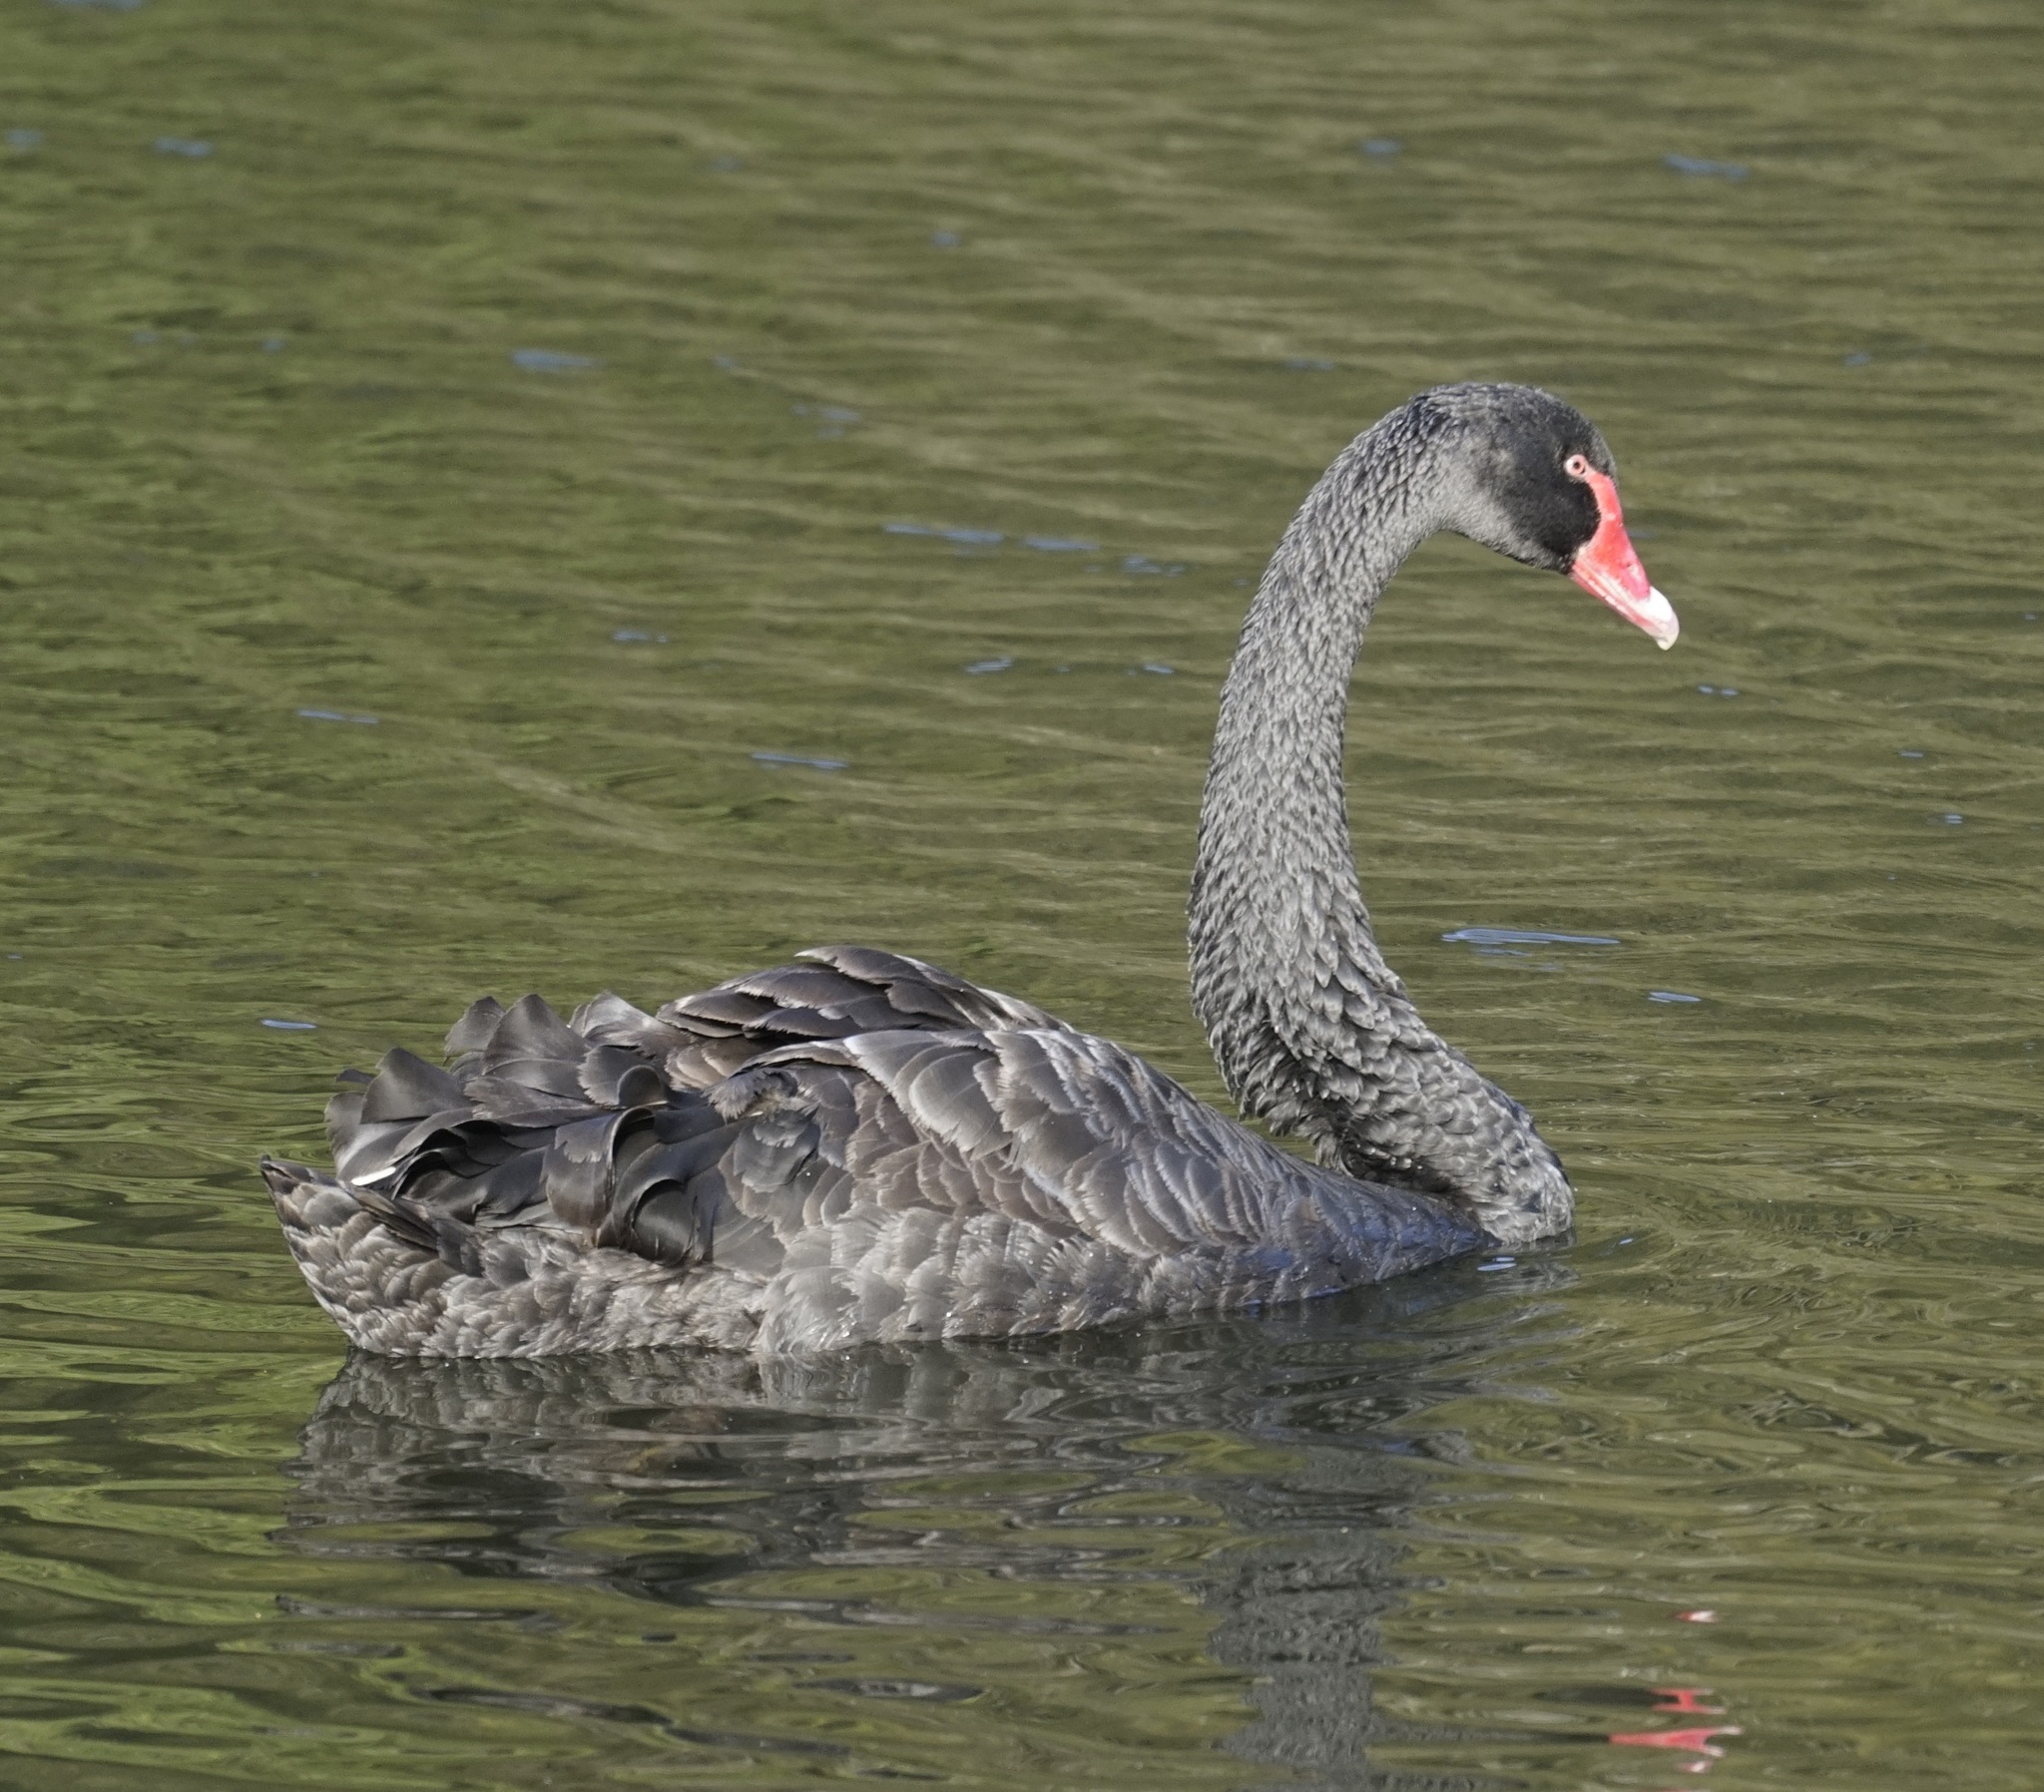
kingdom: Animalia
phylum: Chordata
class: Aves
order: Anseriformes
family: Anatidae
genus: Cygnus
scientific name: Cygnus atratus
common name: Black swan
